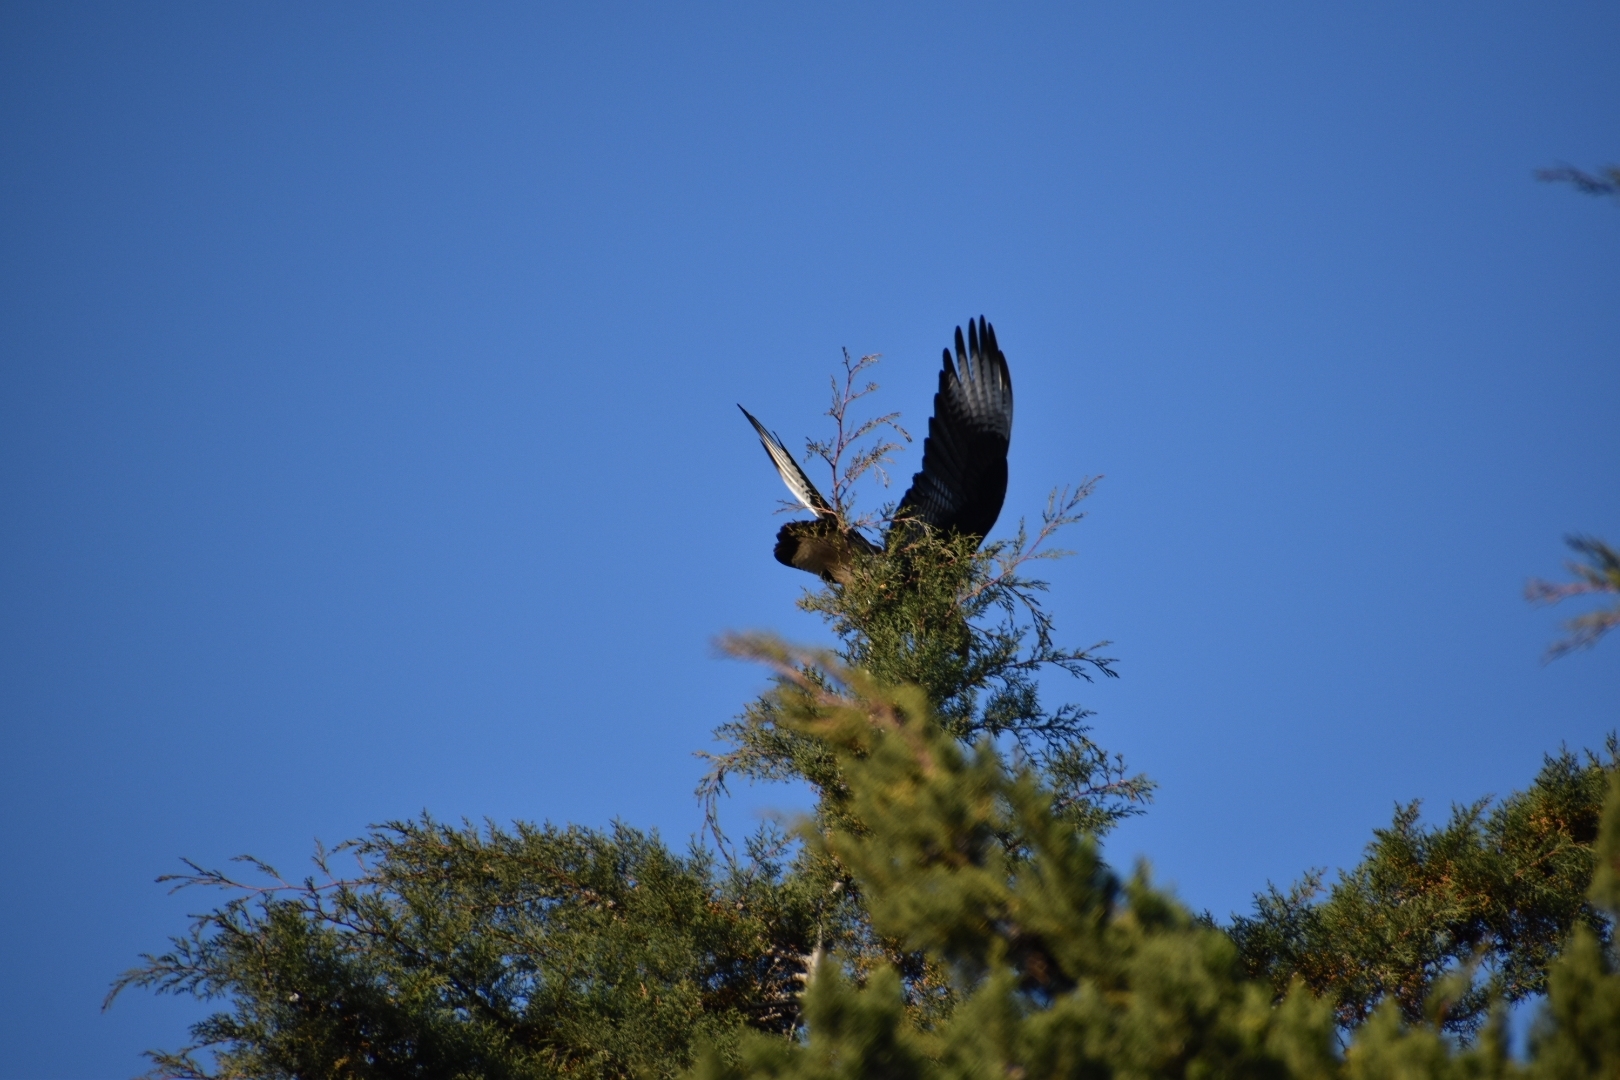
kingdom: Animalia
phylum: Chordata
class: Aves
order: Falconiformes
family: Falconidae
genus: Caracara
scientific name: Caracara plancus
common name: Southern caracara
